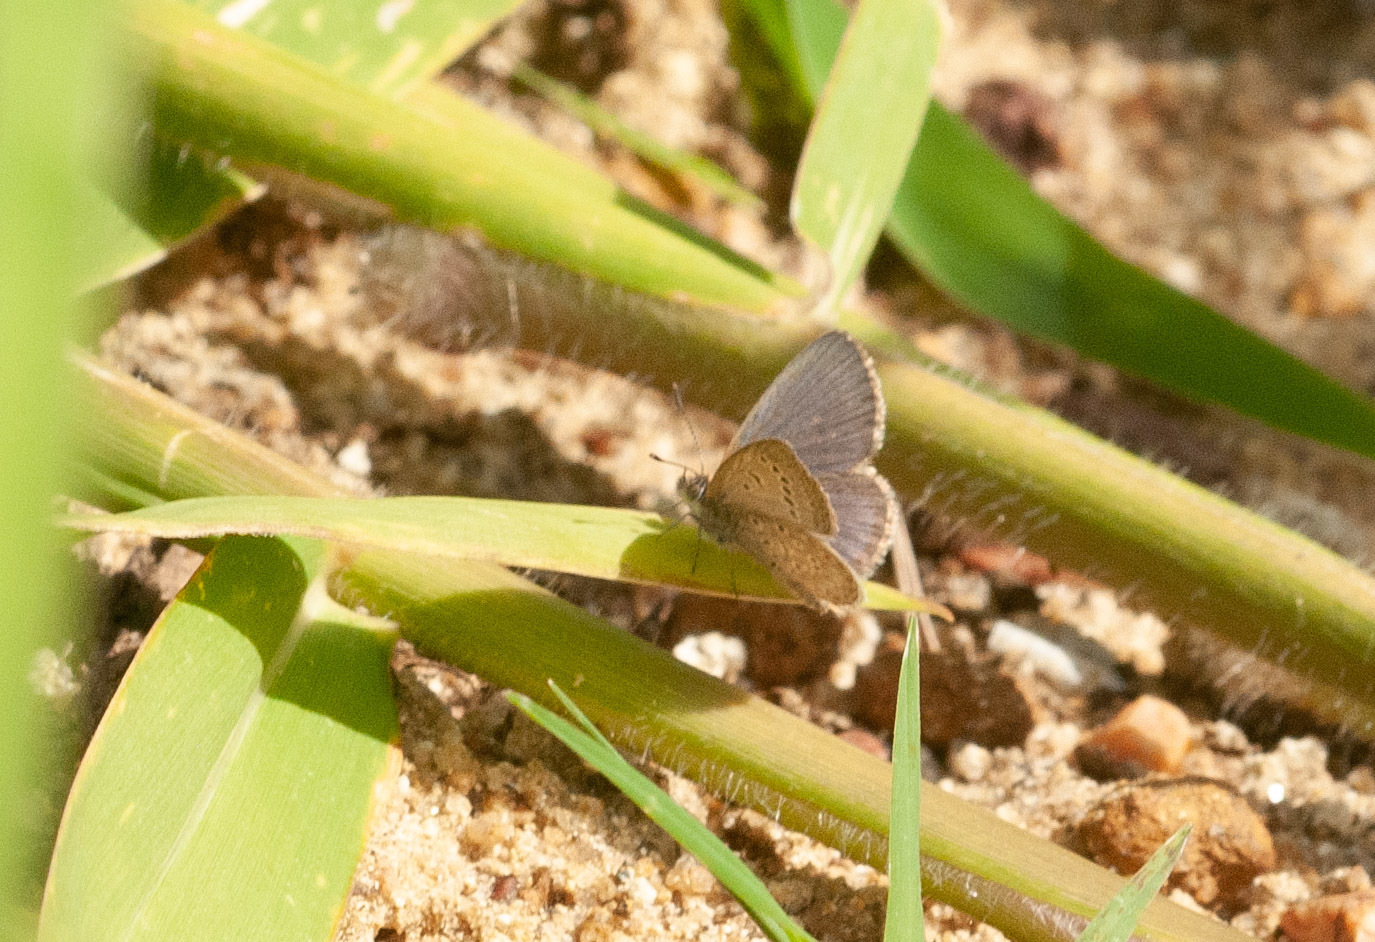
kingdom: Animalia
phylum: Arthropoda
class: Insecta
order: Lepidoptera
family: Lycaenidae
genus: Zizeeria
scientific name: Zizeeria karsandra
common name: Dark grass blue
